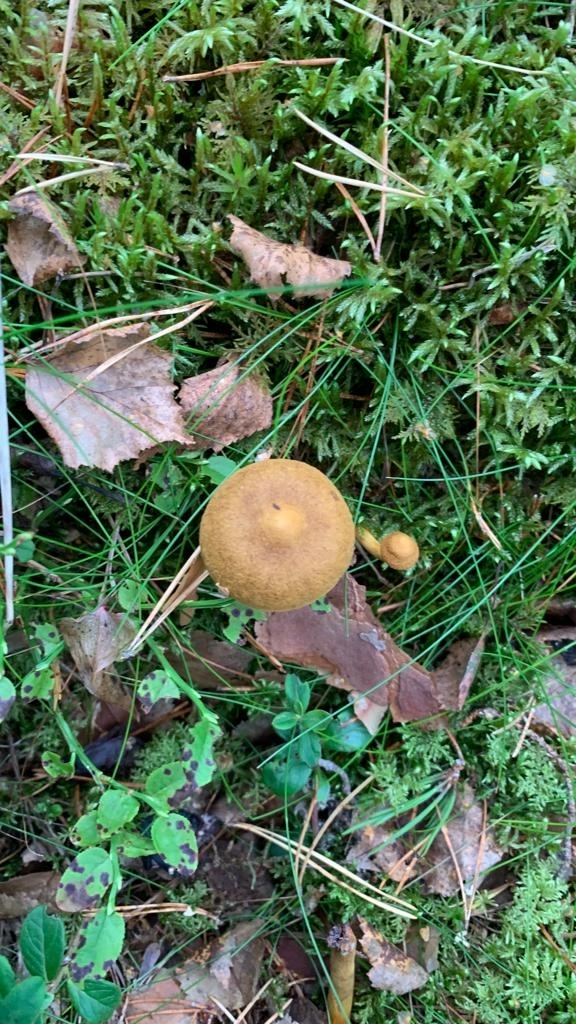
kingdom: Fungi
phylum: Basidiomycota
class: Agaricomycetes
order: Agaricales
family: Cortinariaceae
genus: Cortinarius
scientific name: Cortinarius semisanguineus
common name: Surprise webcap
